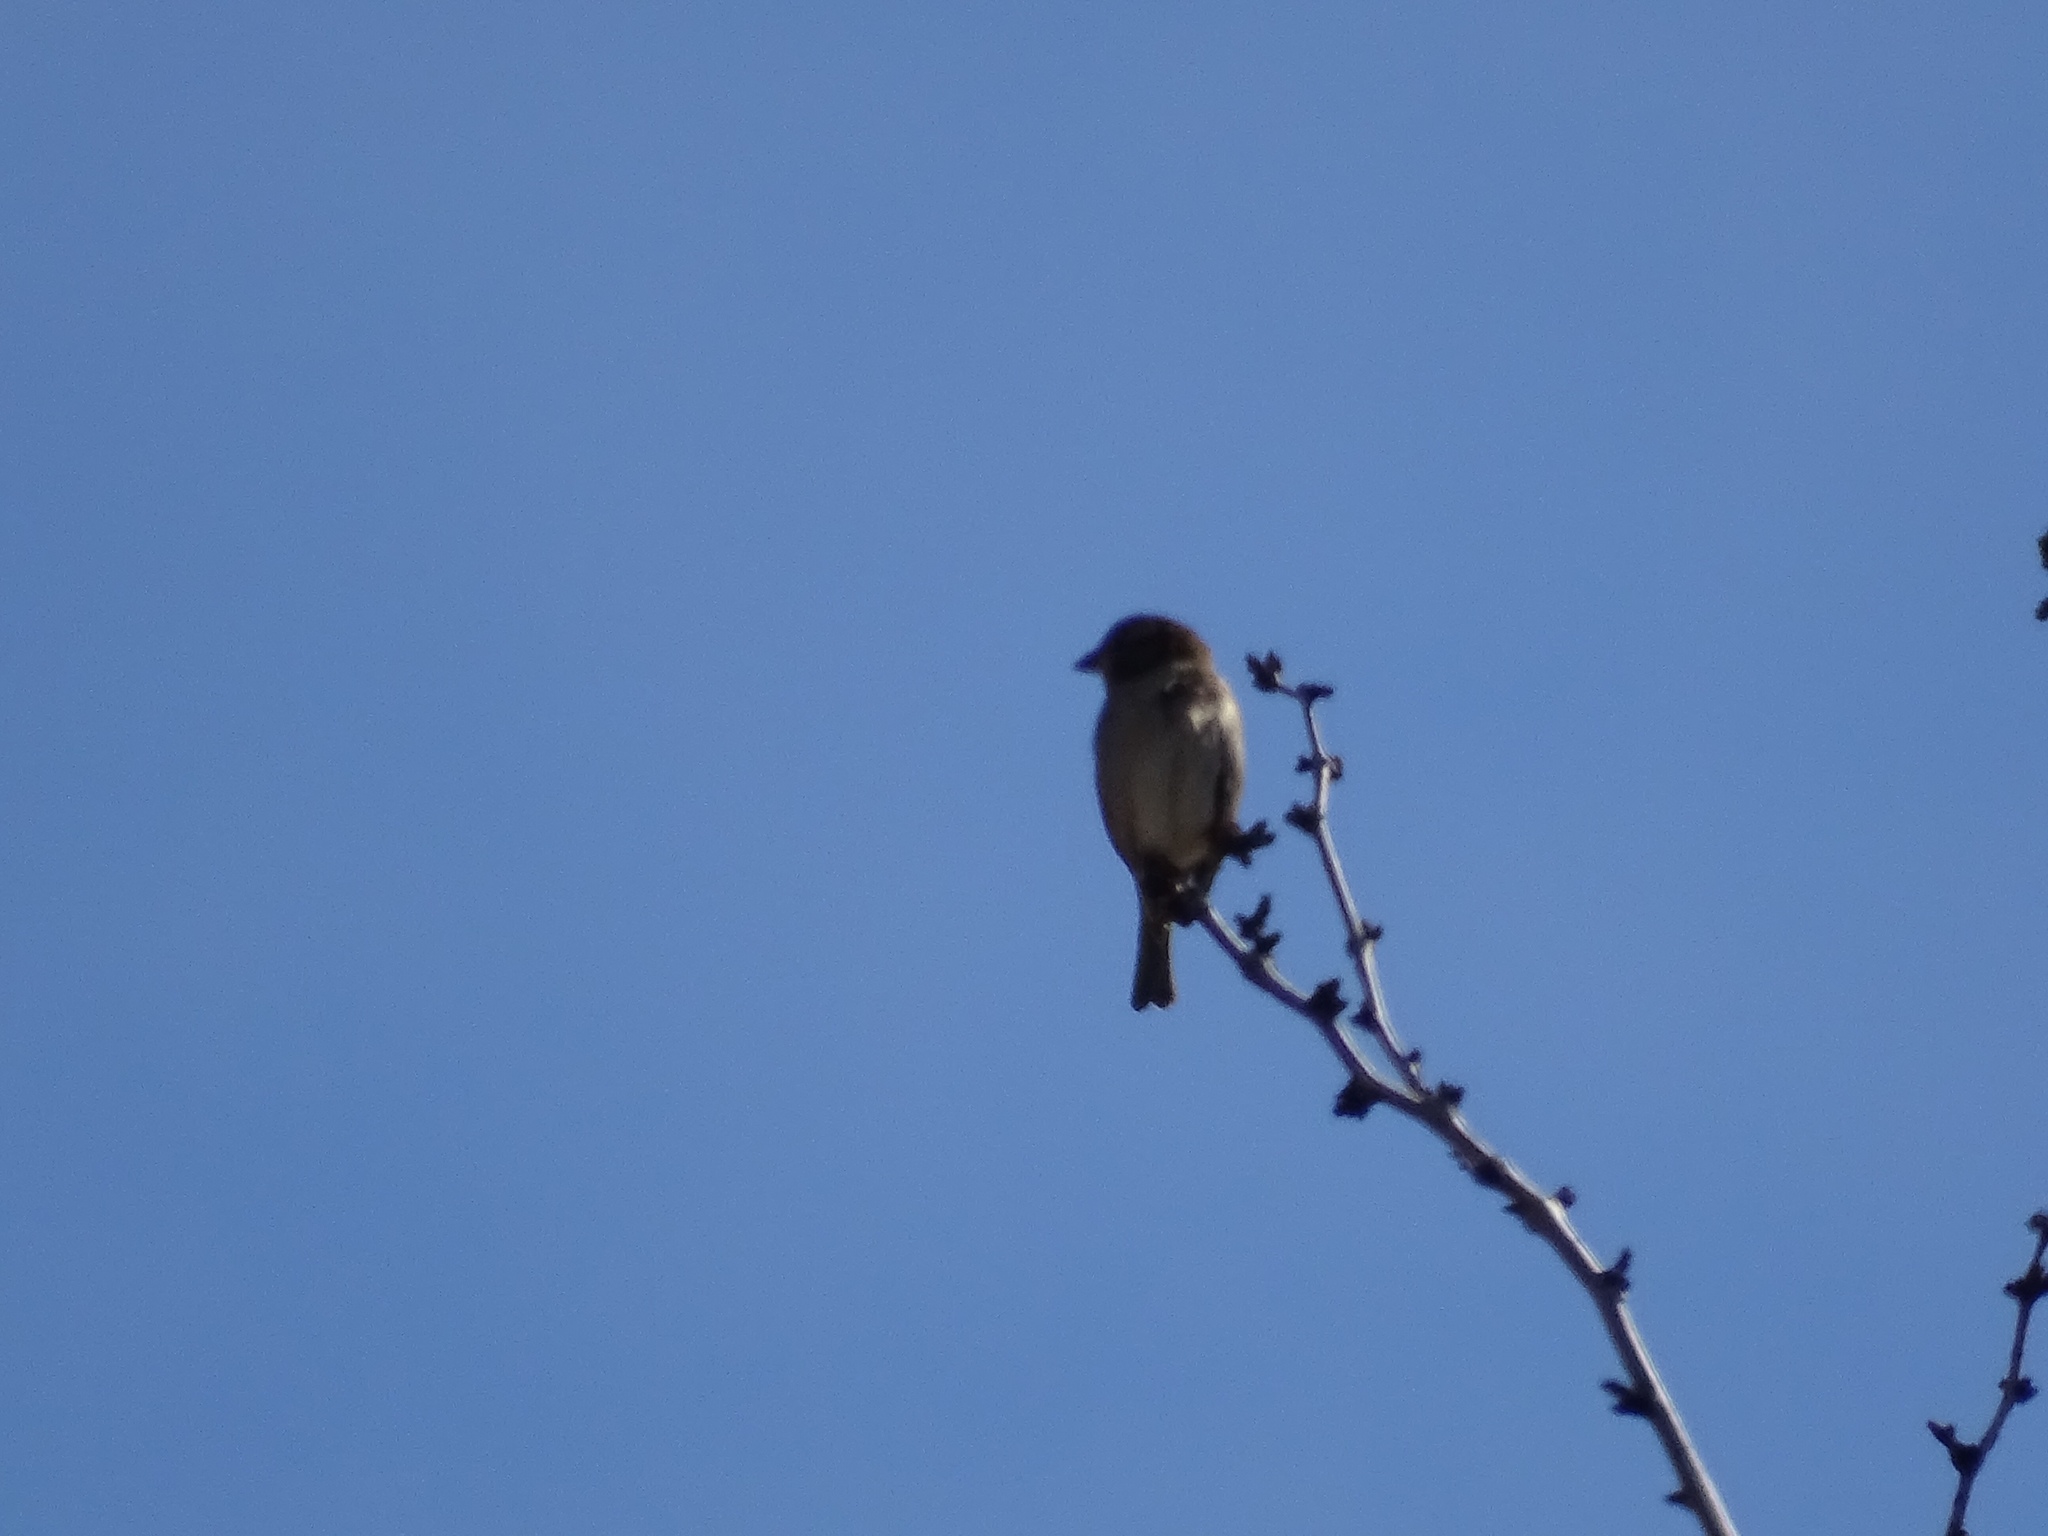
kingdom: Animalia
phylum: Chordata
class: Aves
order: Passeriformes
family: Passeridae
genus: Passer
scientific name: Passer domesticus
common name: House sparrow
